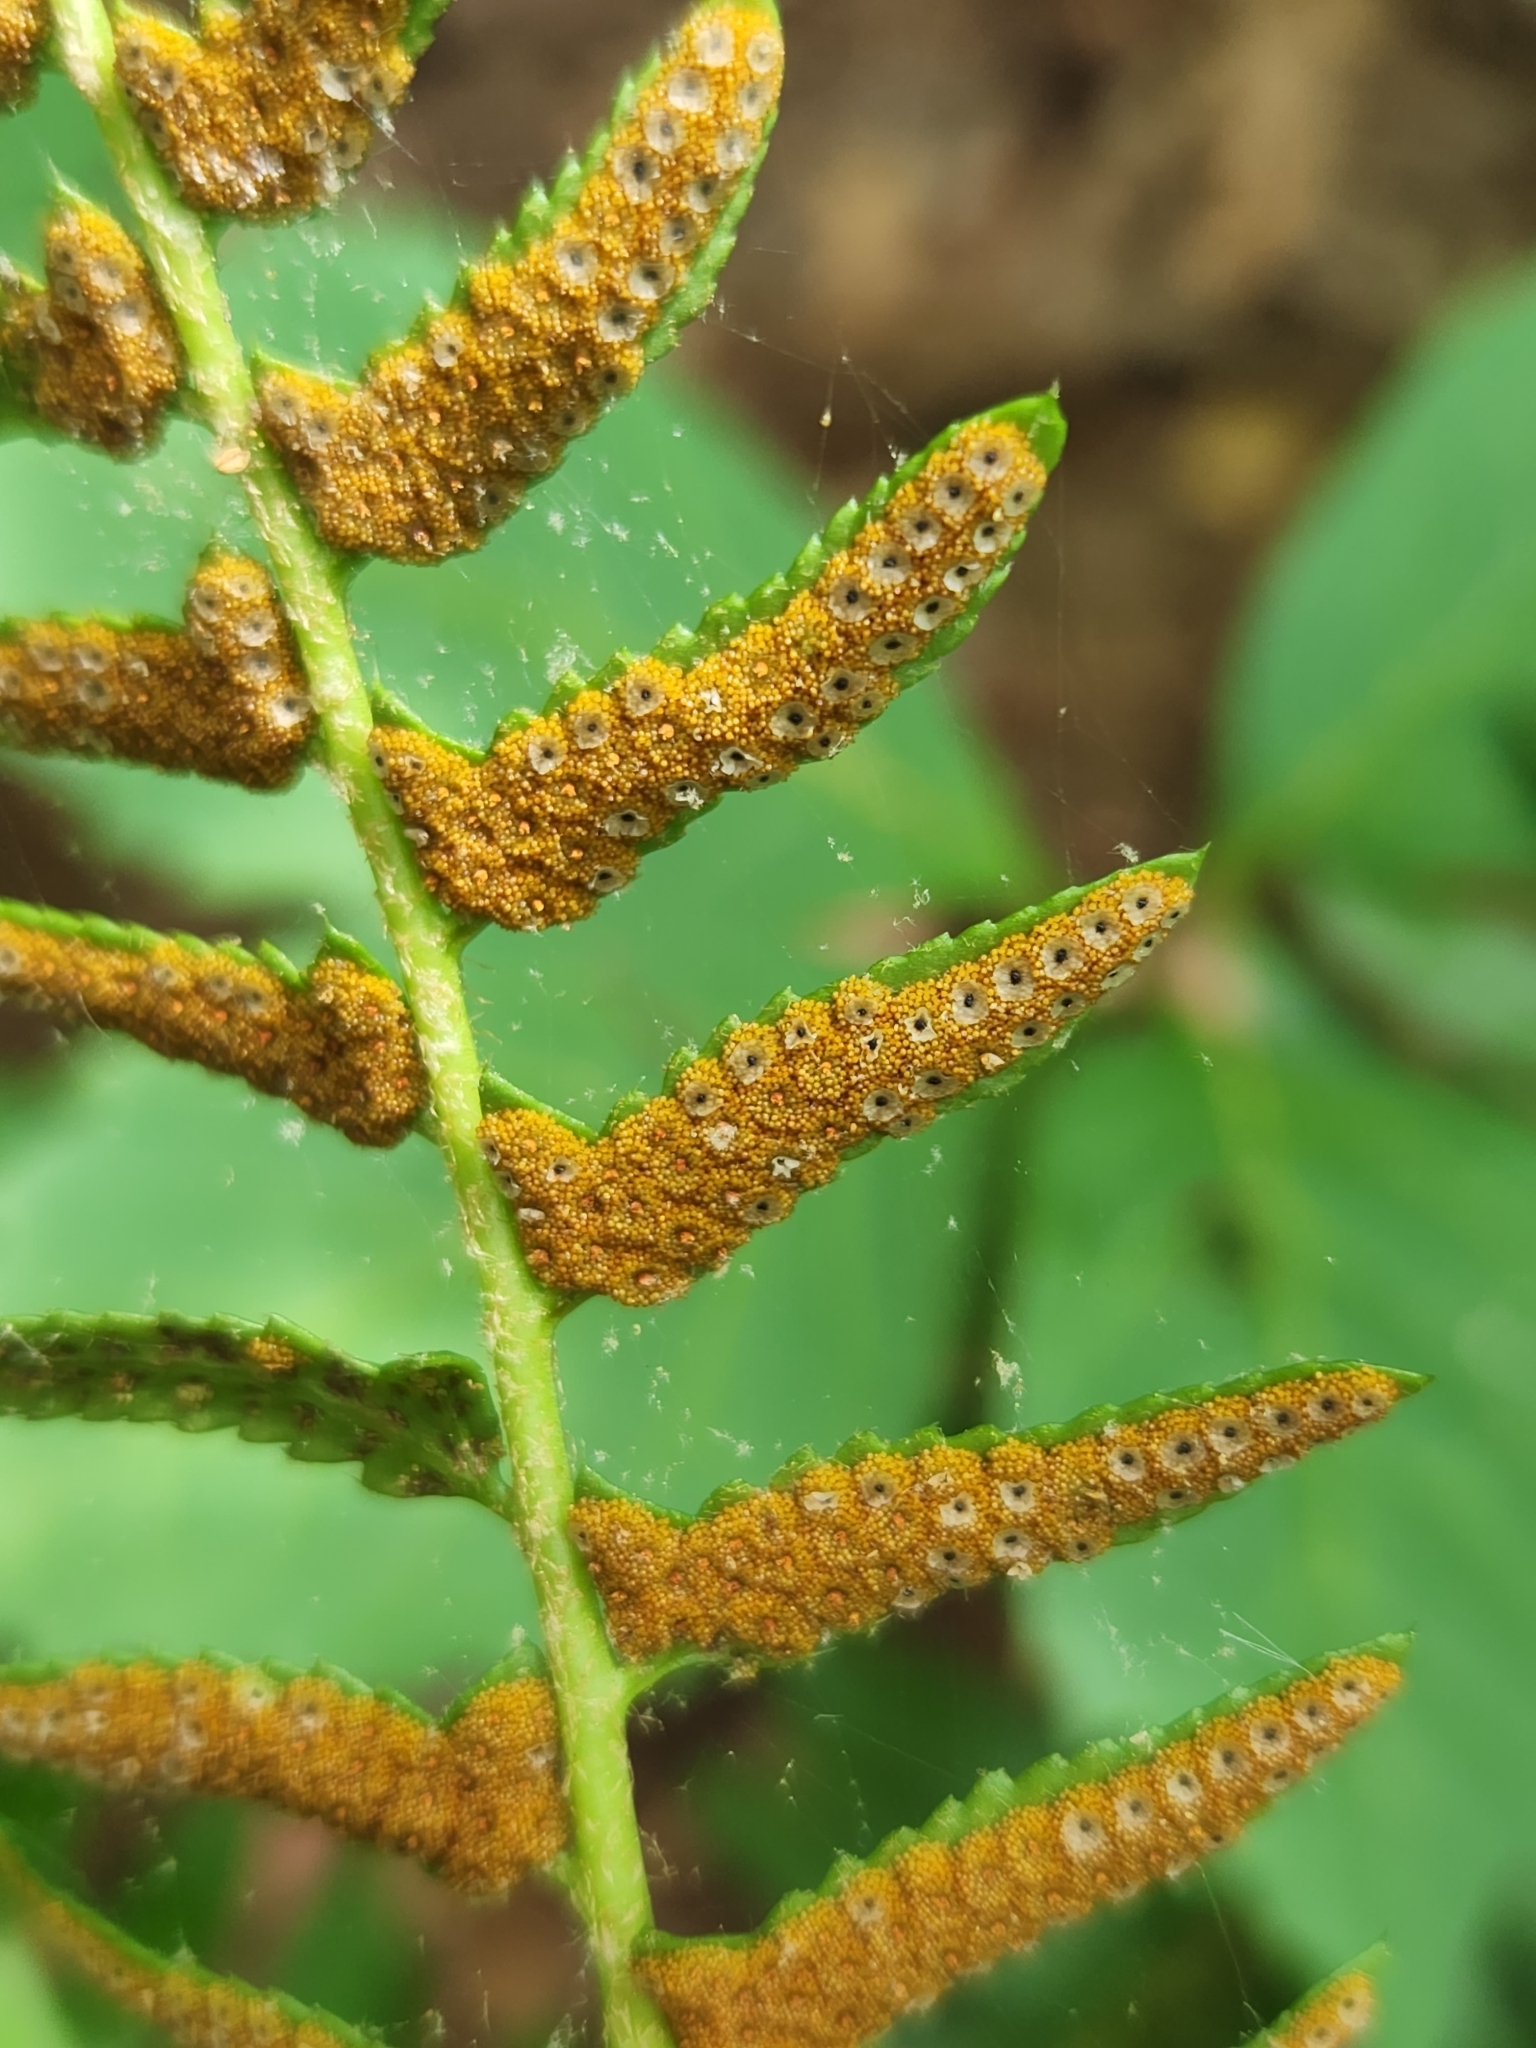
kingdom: Plantae
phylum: Tracheophyta
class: Polypodiopsida
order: Polypodiales
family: Dryopteridaceae
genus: Polystichum
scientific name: Polystichum acrostichoides
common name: Christmas fern
